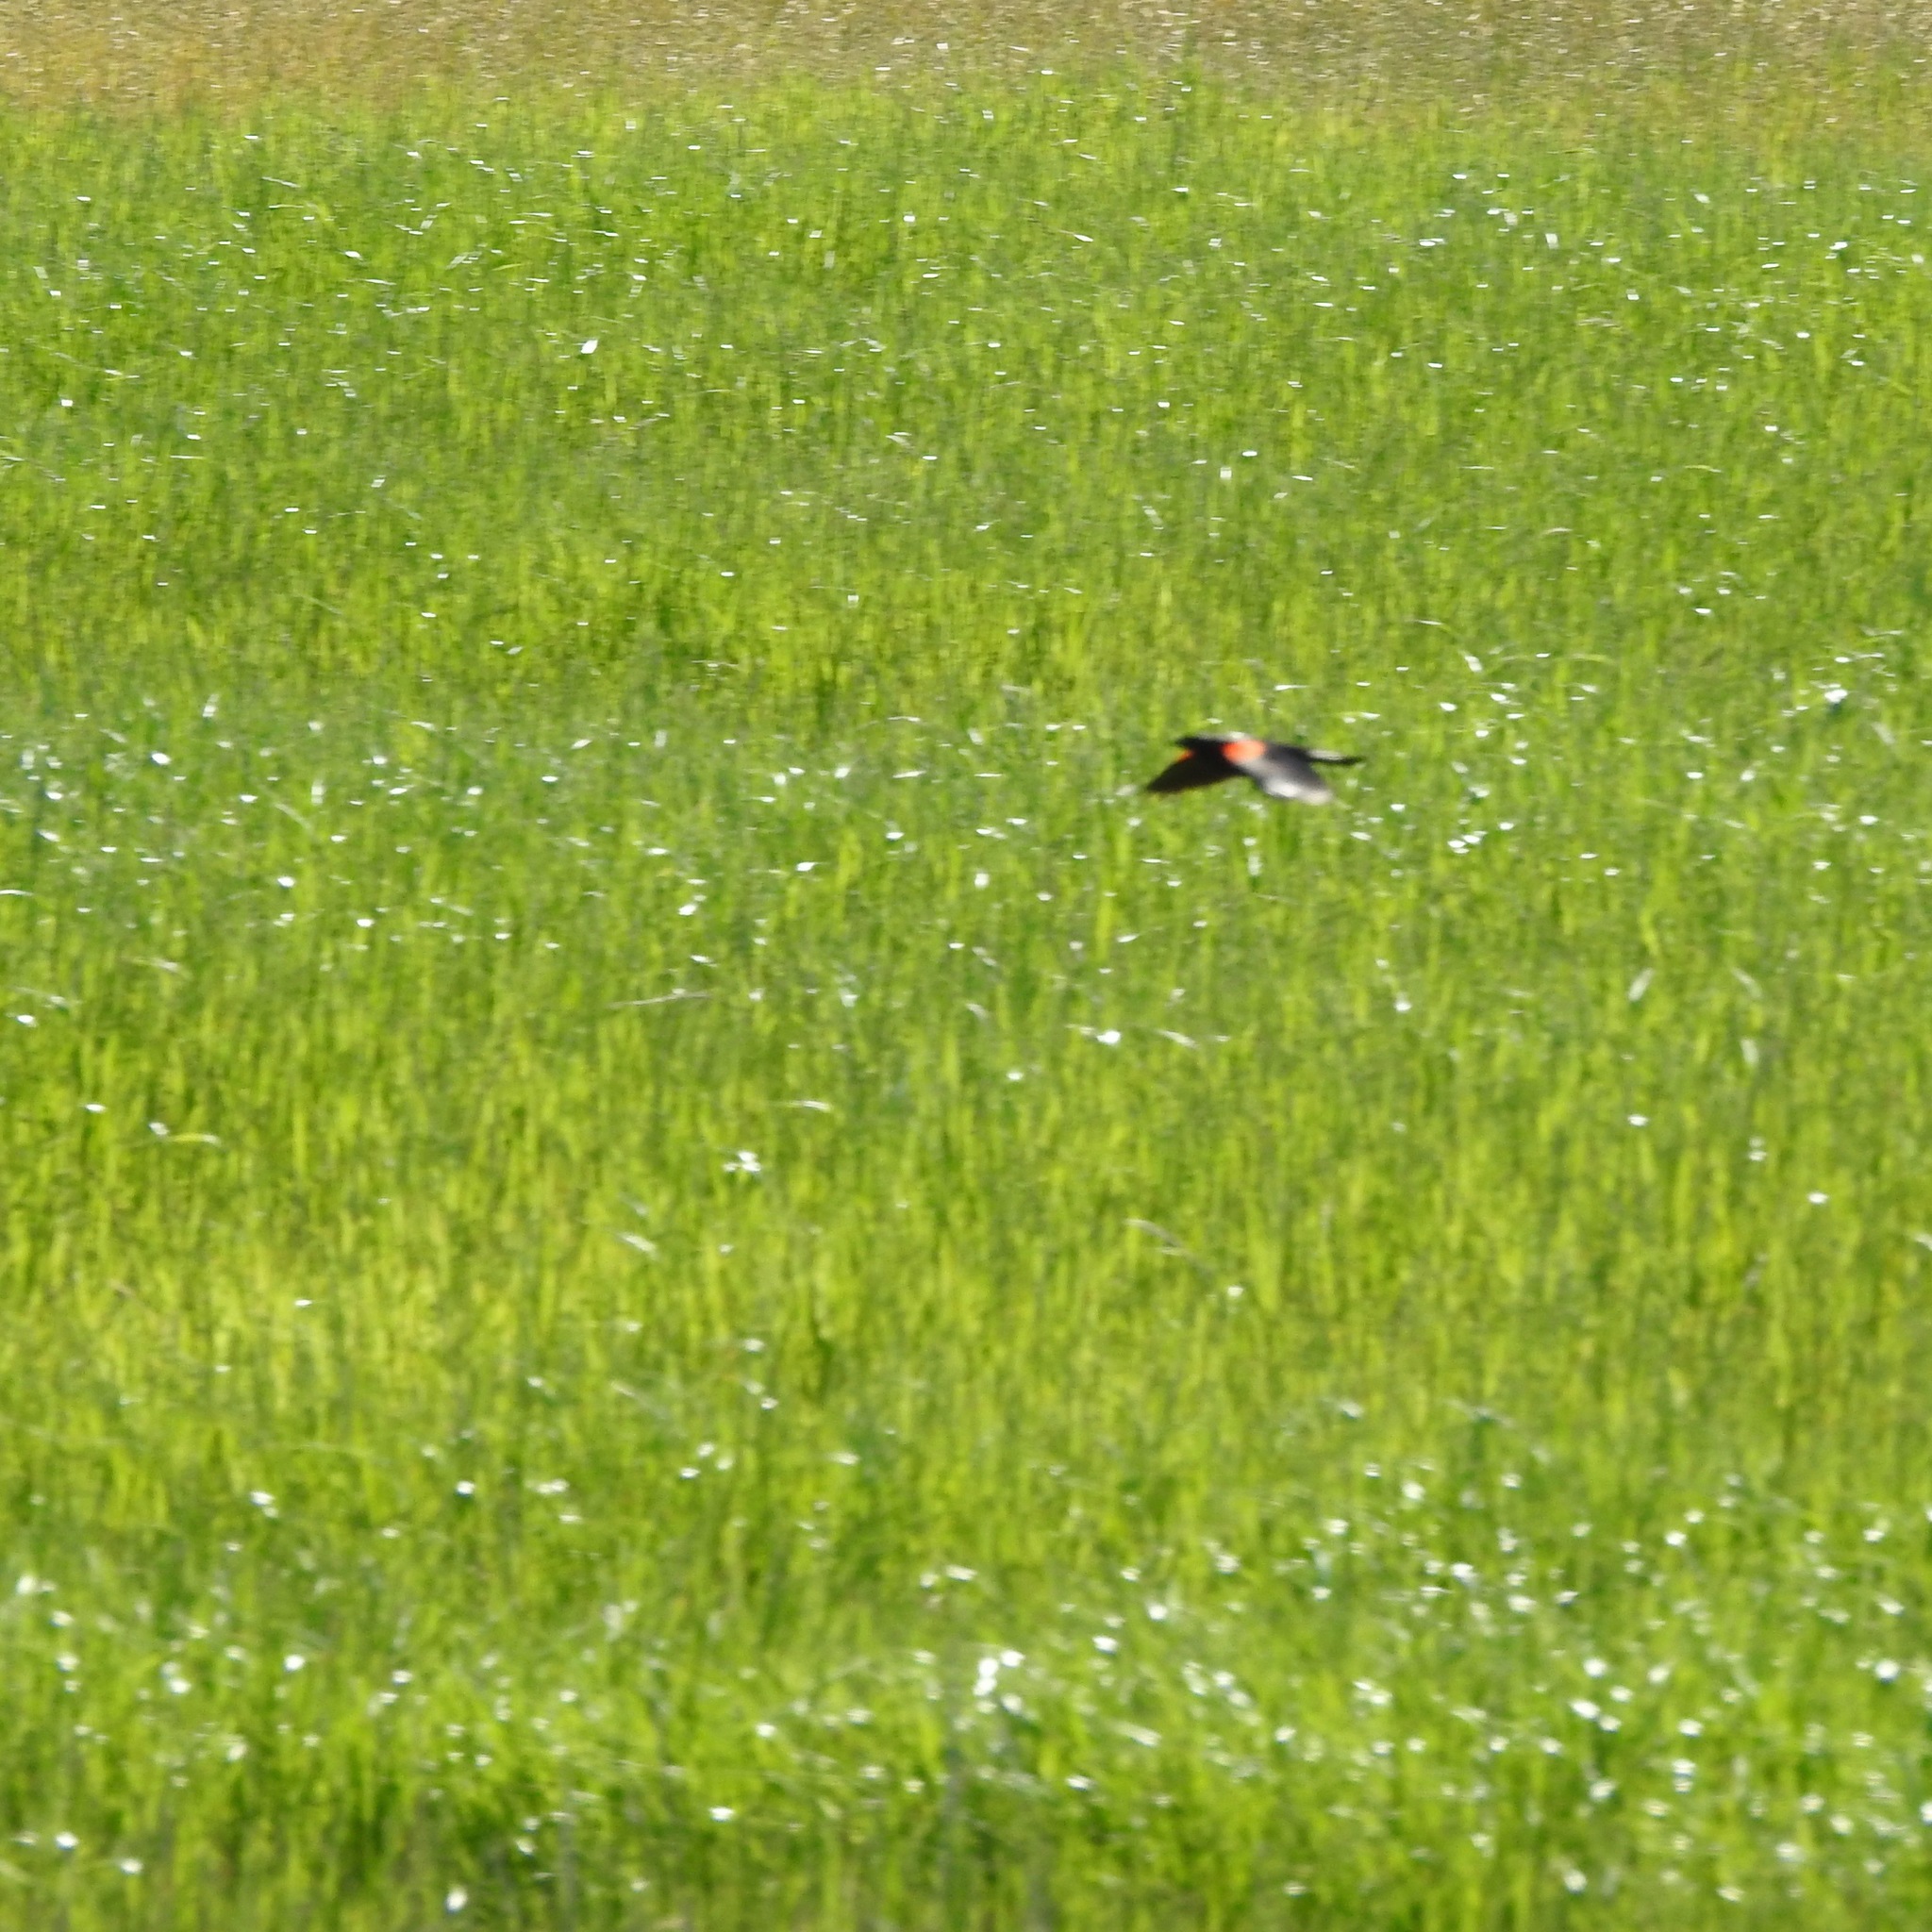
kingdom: Animalia
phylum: Chordata
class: Aves
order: Passeriformes
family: Icteridae
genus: Agelaius
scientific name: Agelaius phoeniceus
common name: Red-winged blackbird
